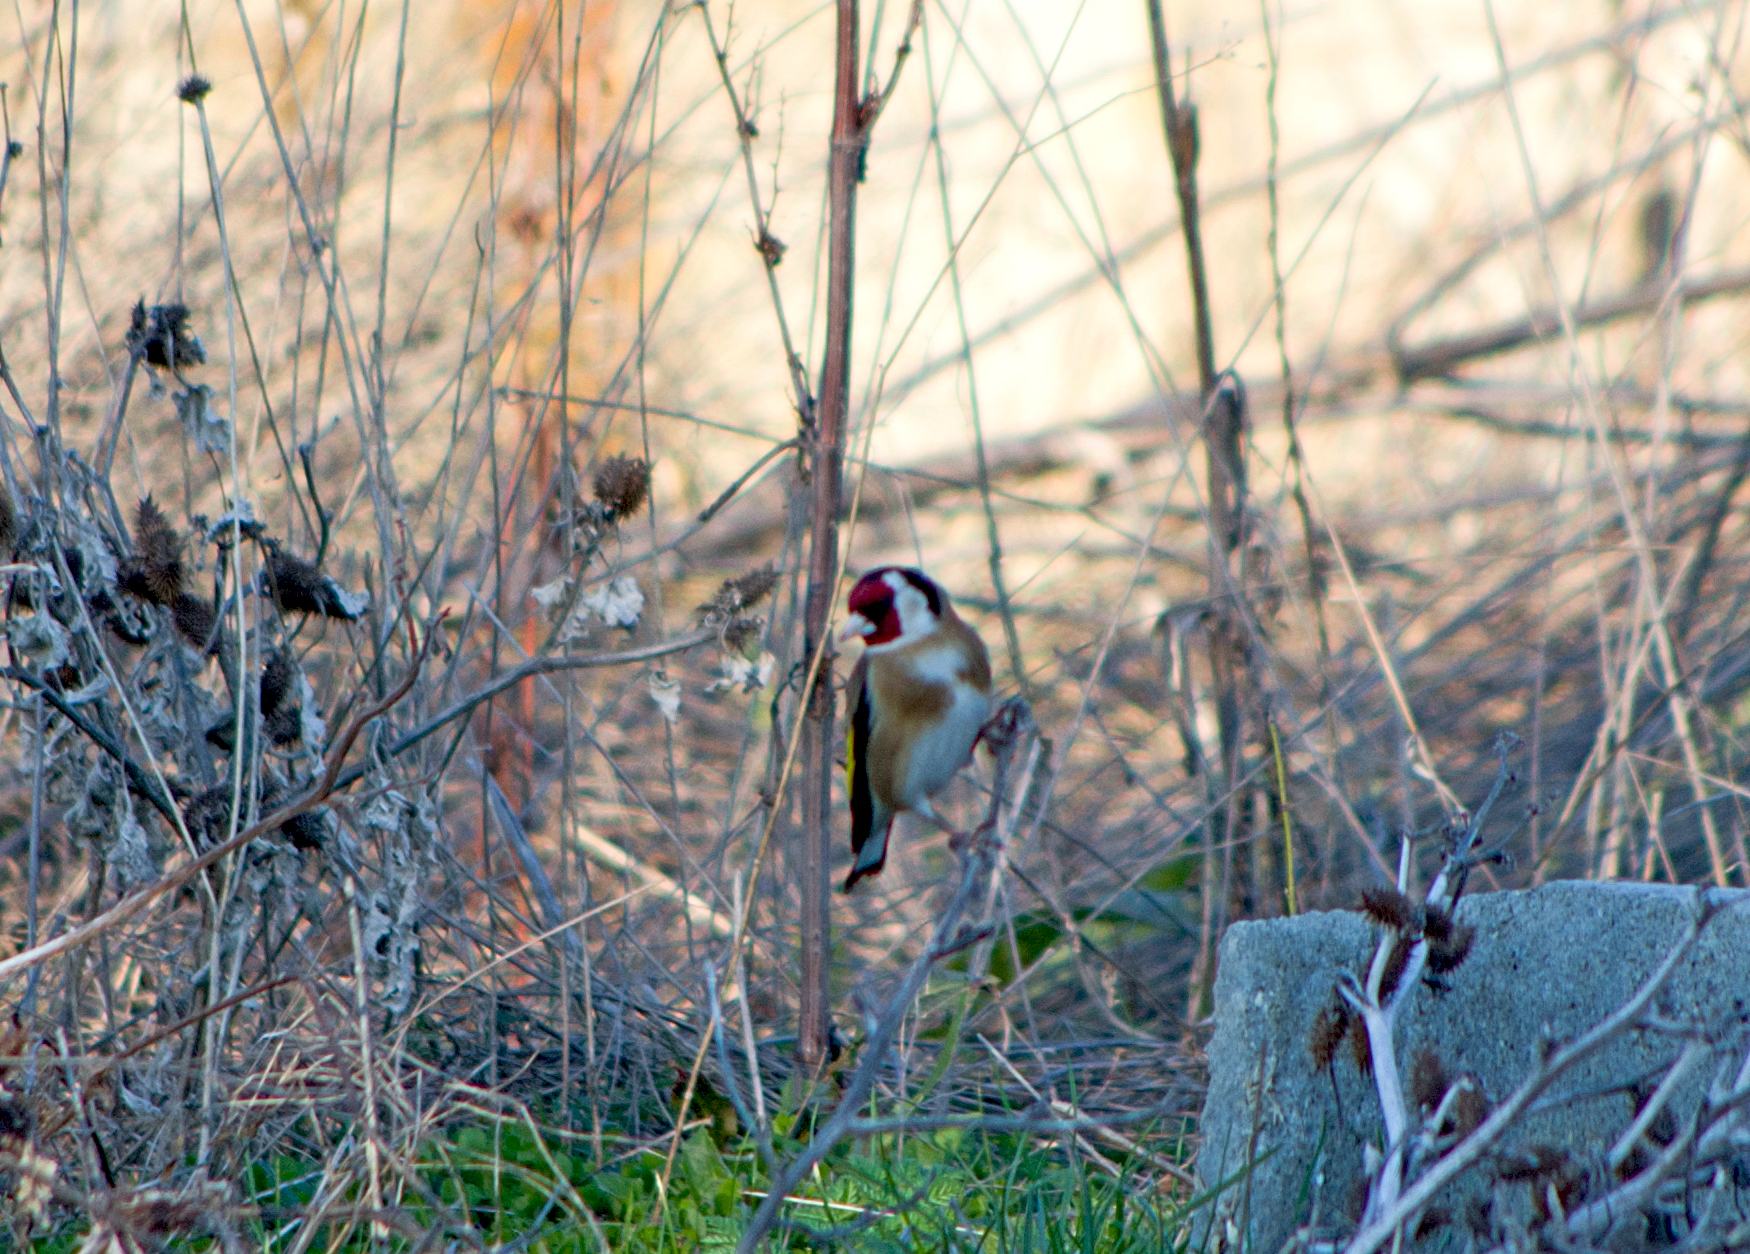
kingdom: Animalia
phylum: Chordata
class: Aves
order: Passeriformes
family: Fringillidae
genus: Carduelis
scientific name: Carduelis carduelis
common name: European goldfinch
